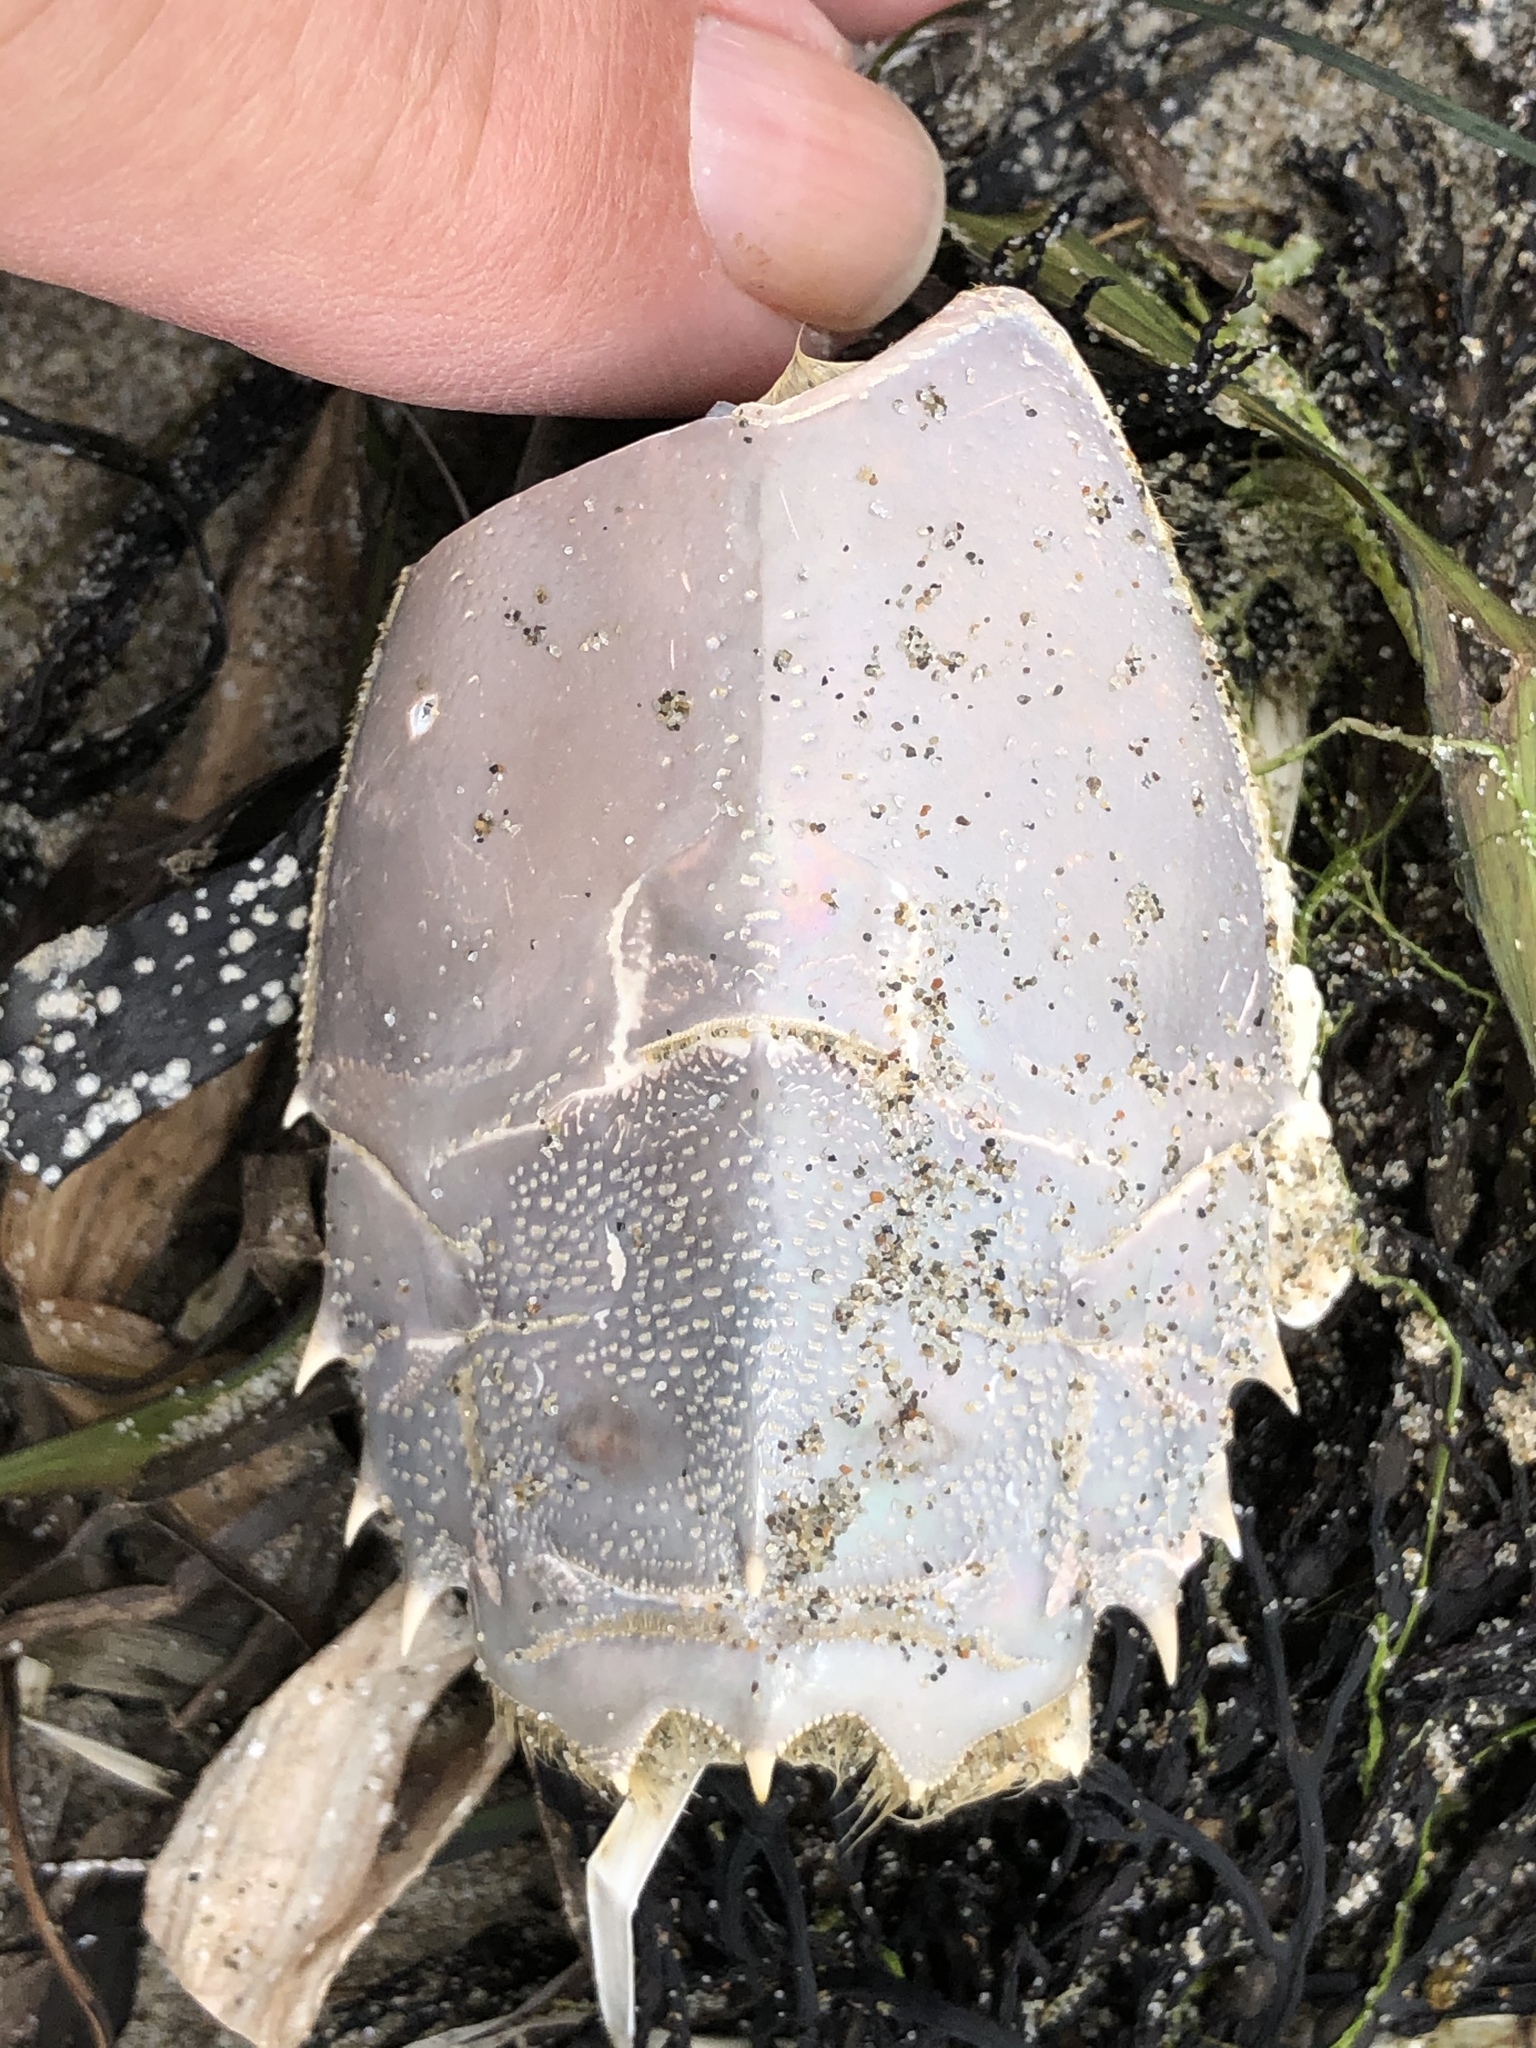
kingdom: Animalia
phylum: Arthropoda
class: Malacostraca
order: Decapoda
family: Blepharipodidae
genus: Blepharipoda
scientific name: Blepharipoda occidentalis
